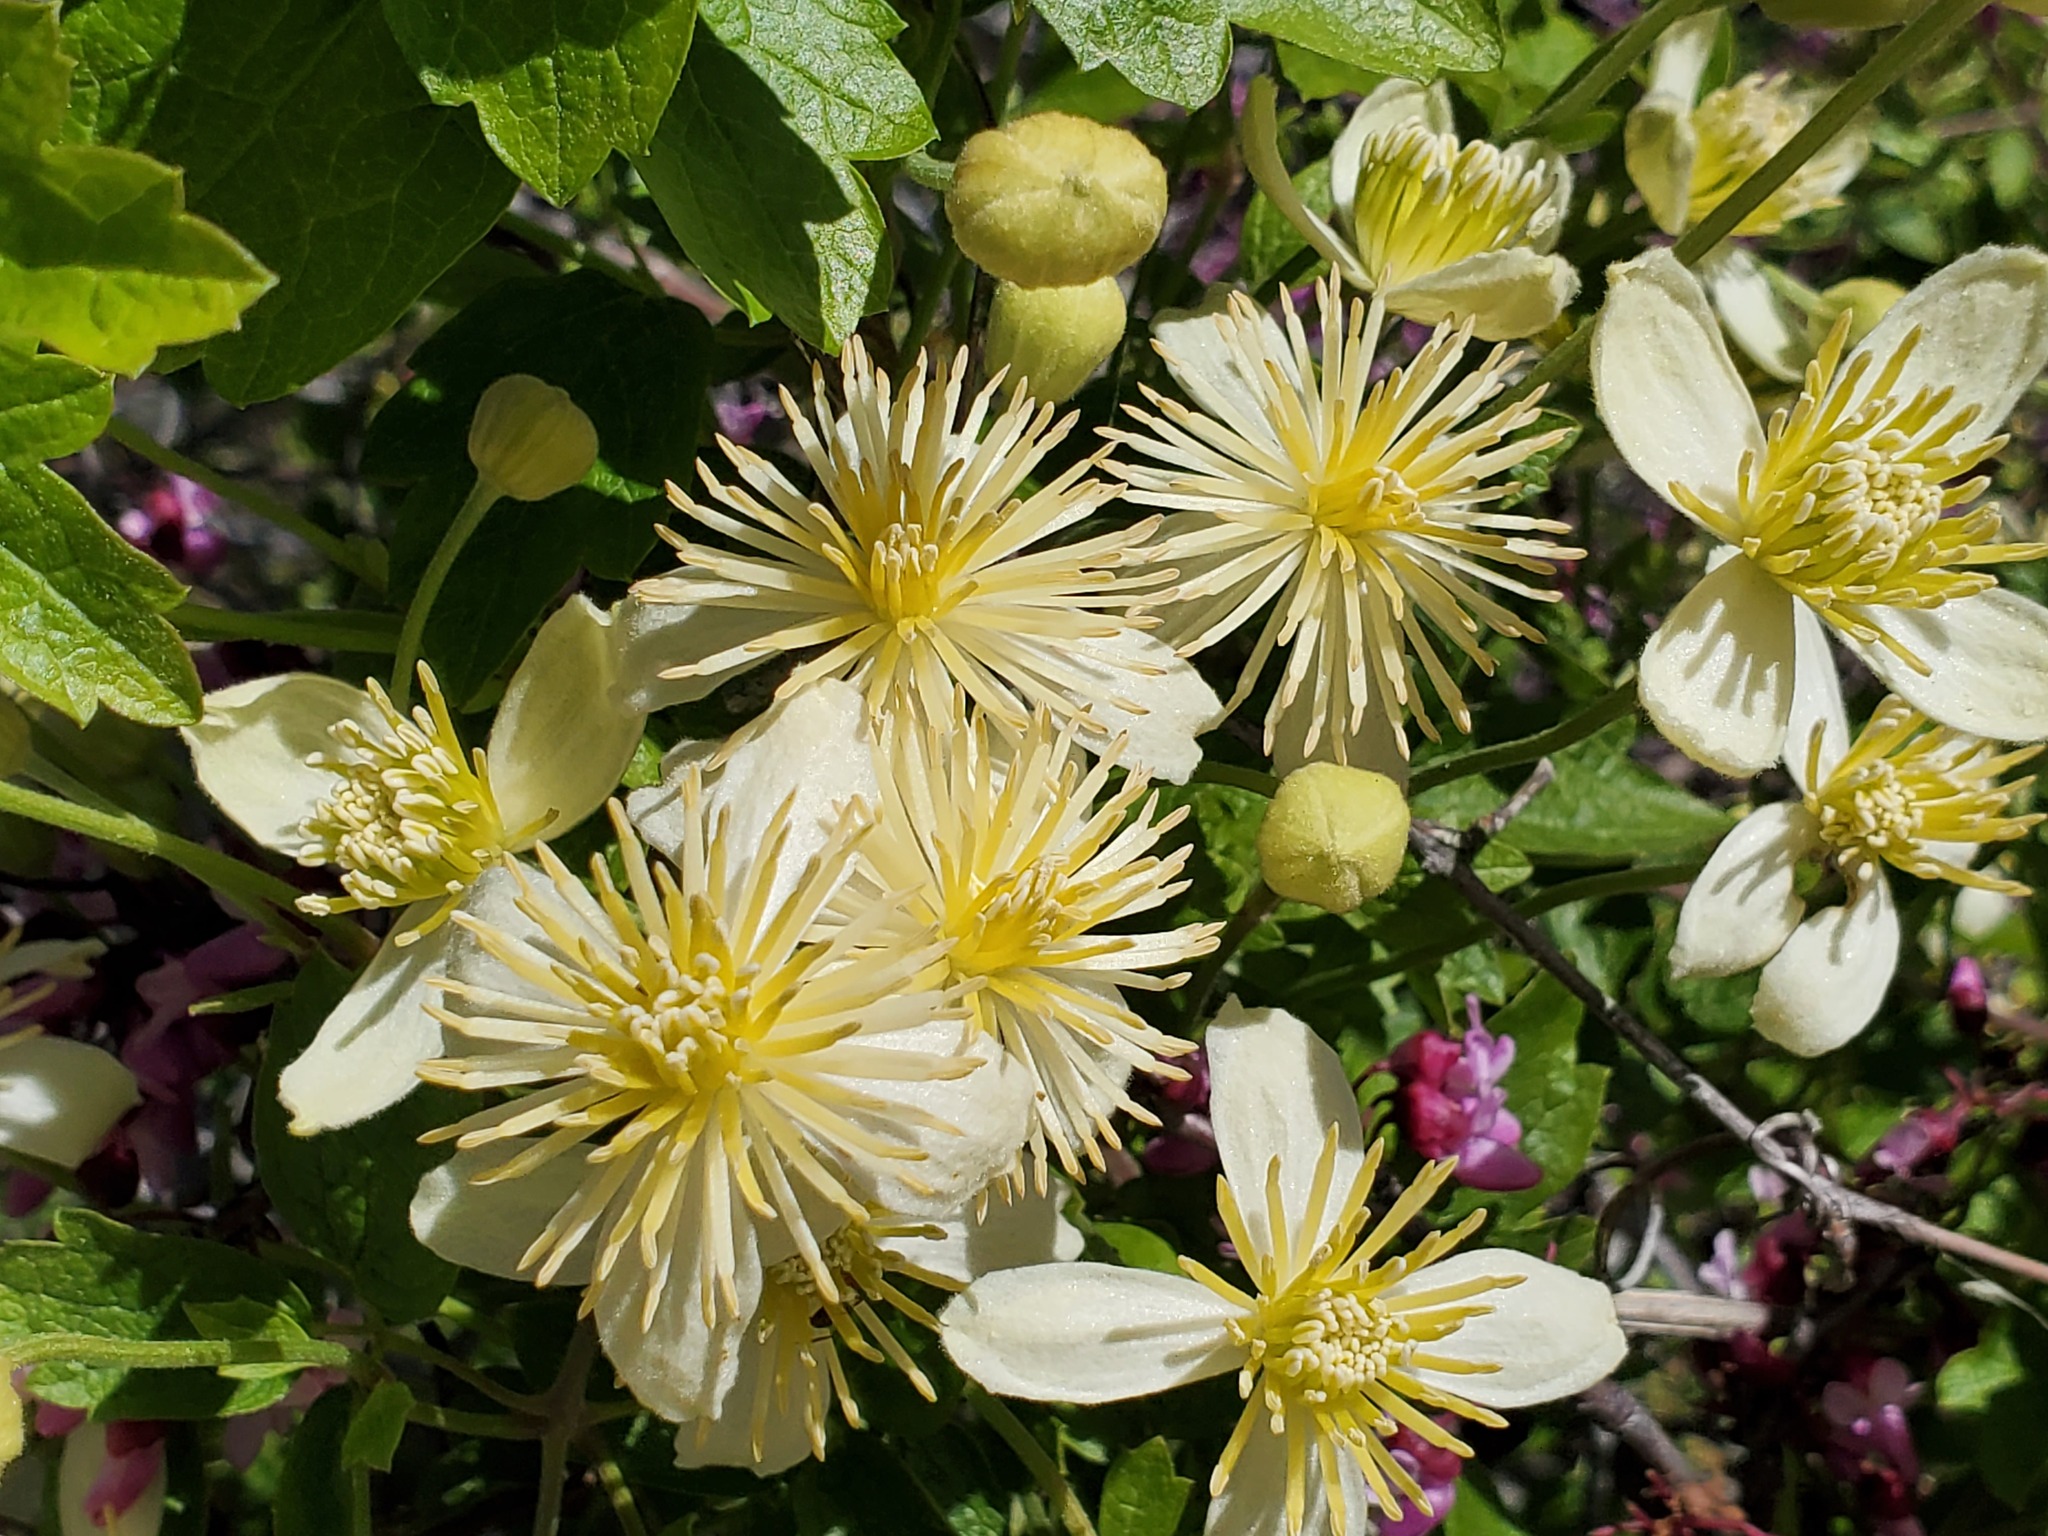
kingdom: Plantae
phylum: Tracheophyta
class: Magnoliopsida
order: Ranunculales
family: Ranunculaceae
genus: Clematis
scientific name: Clematis lasiantha
